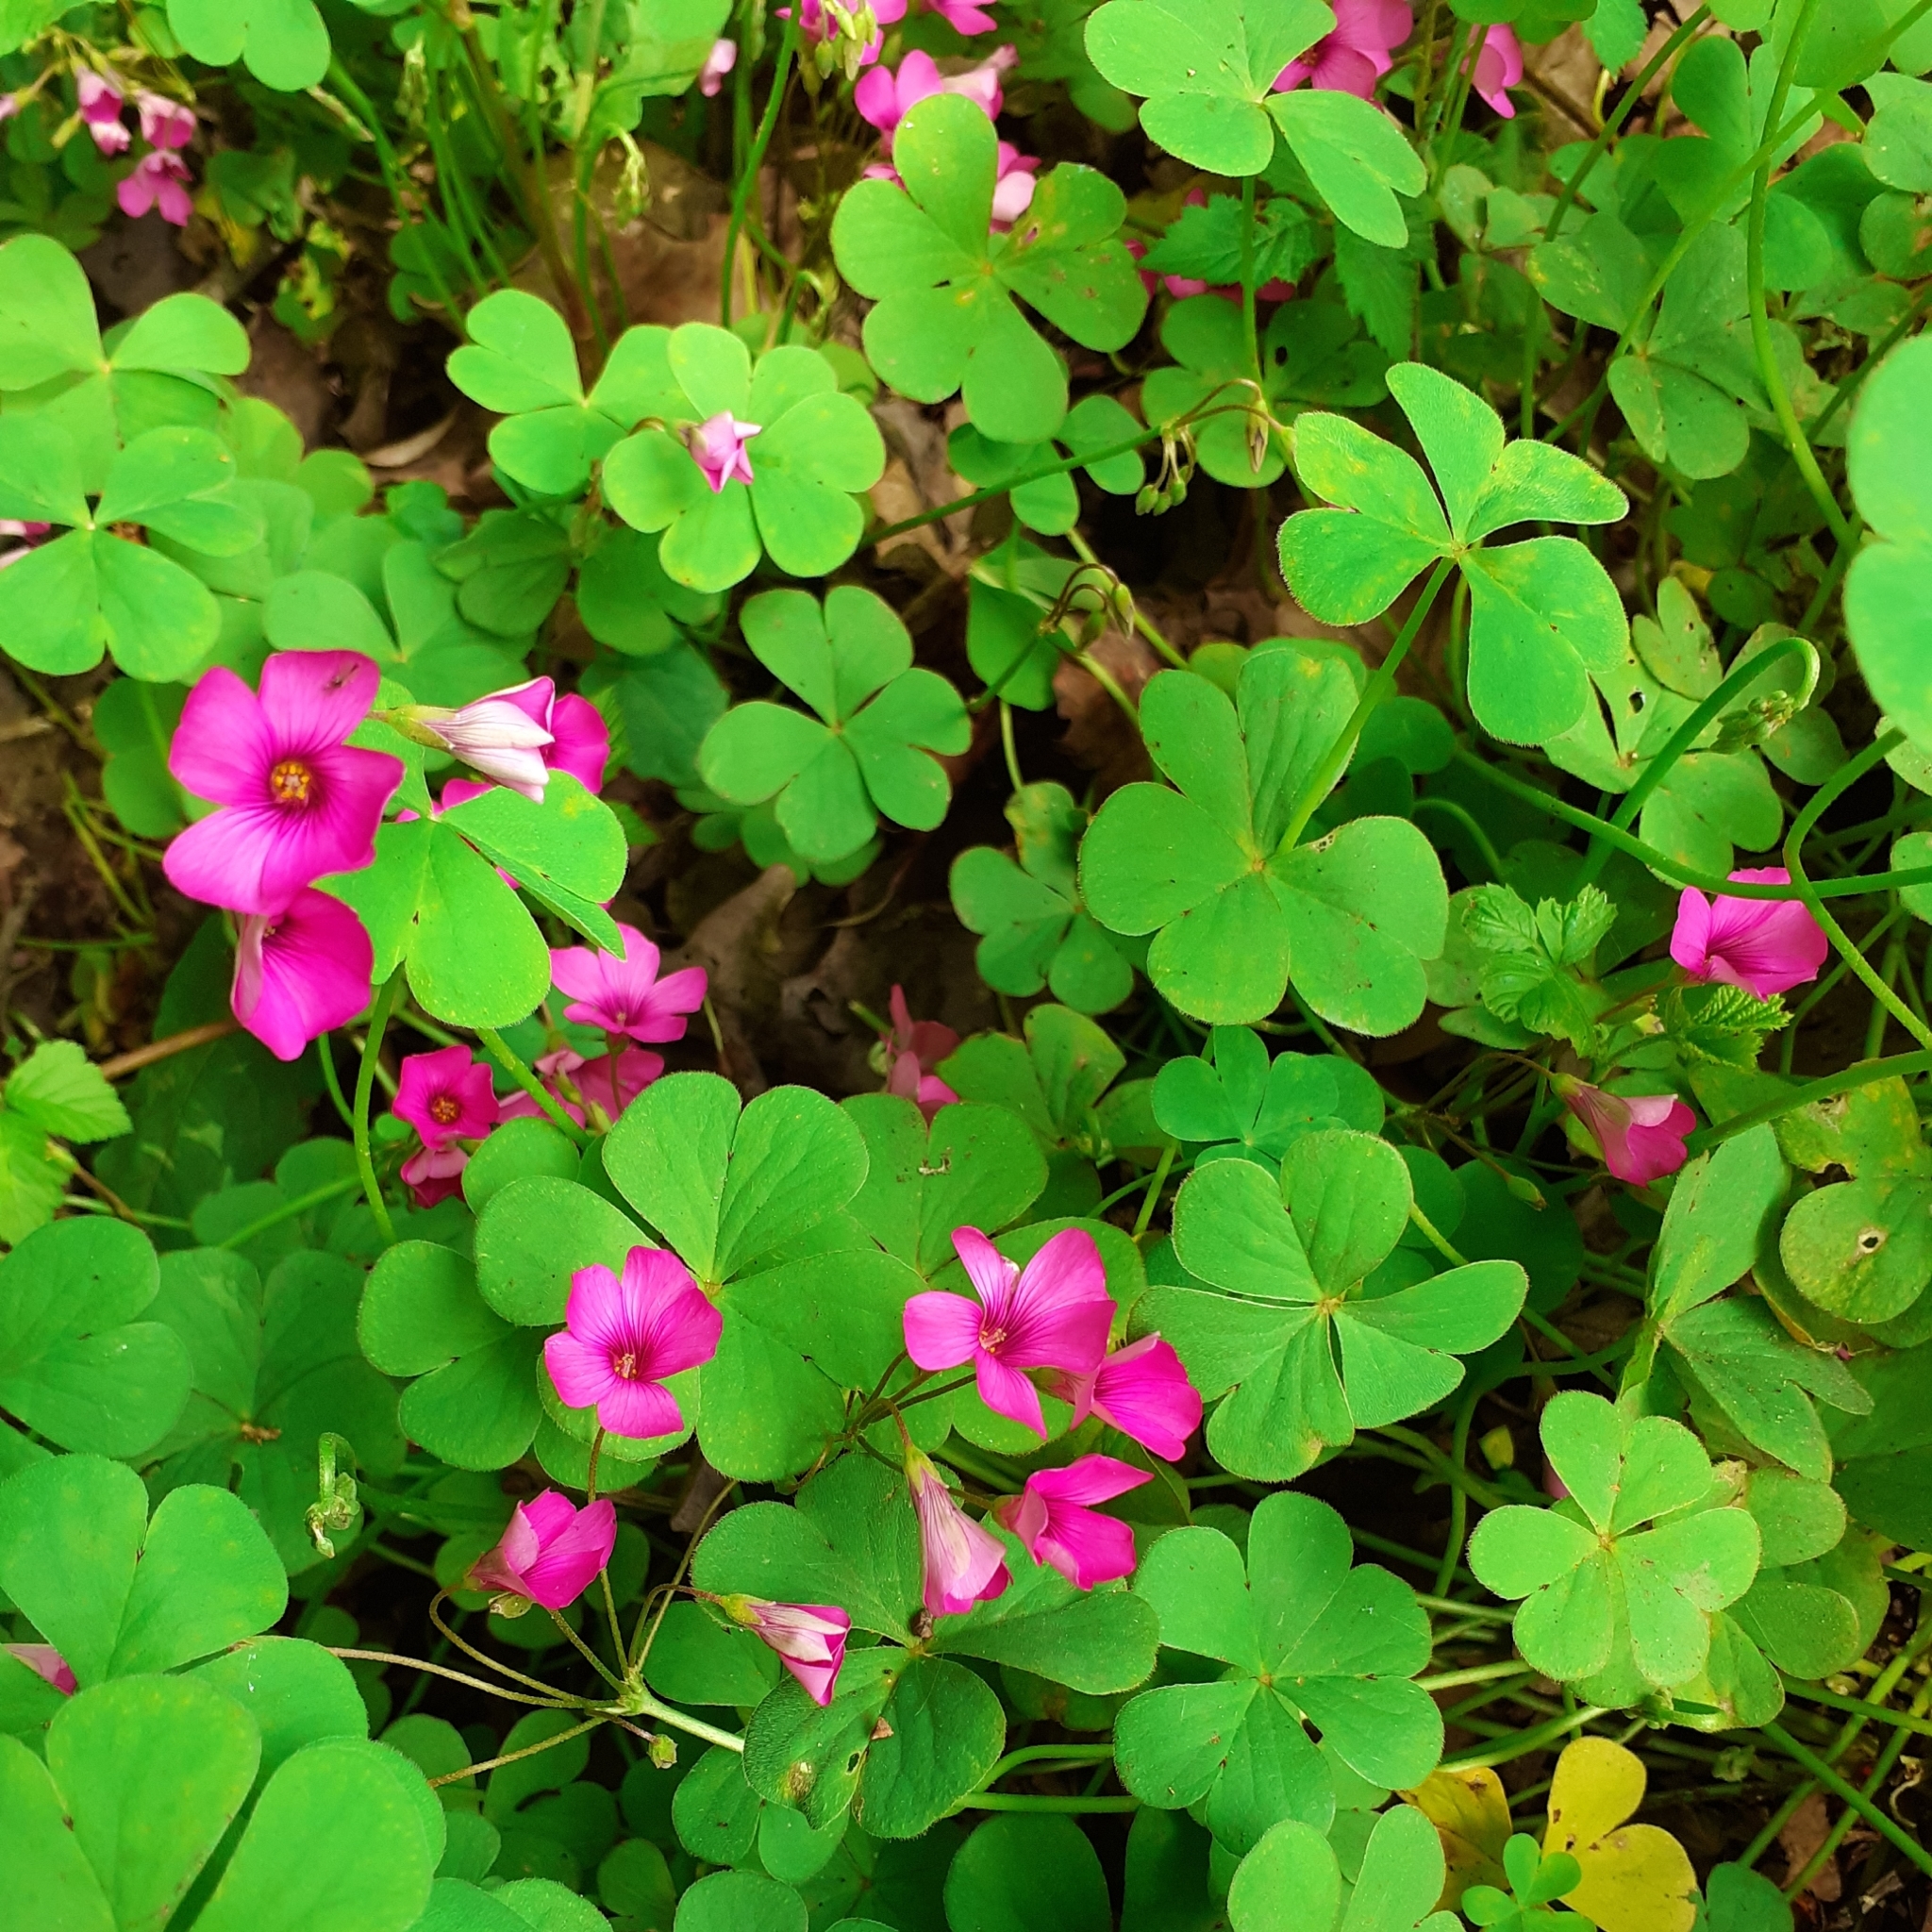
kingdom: Plantae
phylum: Tracheophyta
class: Magnoliopsida
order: Oxalidales
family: Oxalidaceae
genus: Oxalis
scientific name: Oxalis articulata
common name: Pink-sorrel
